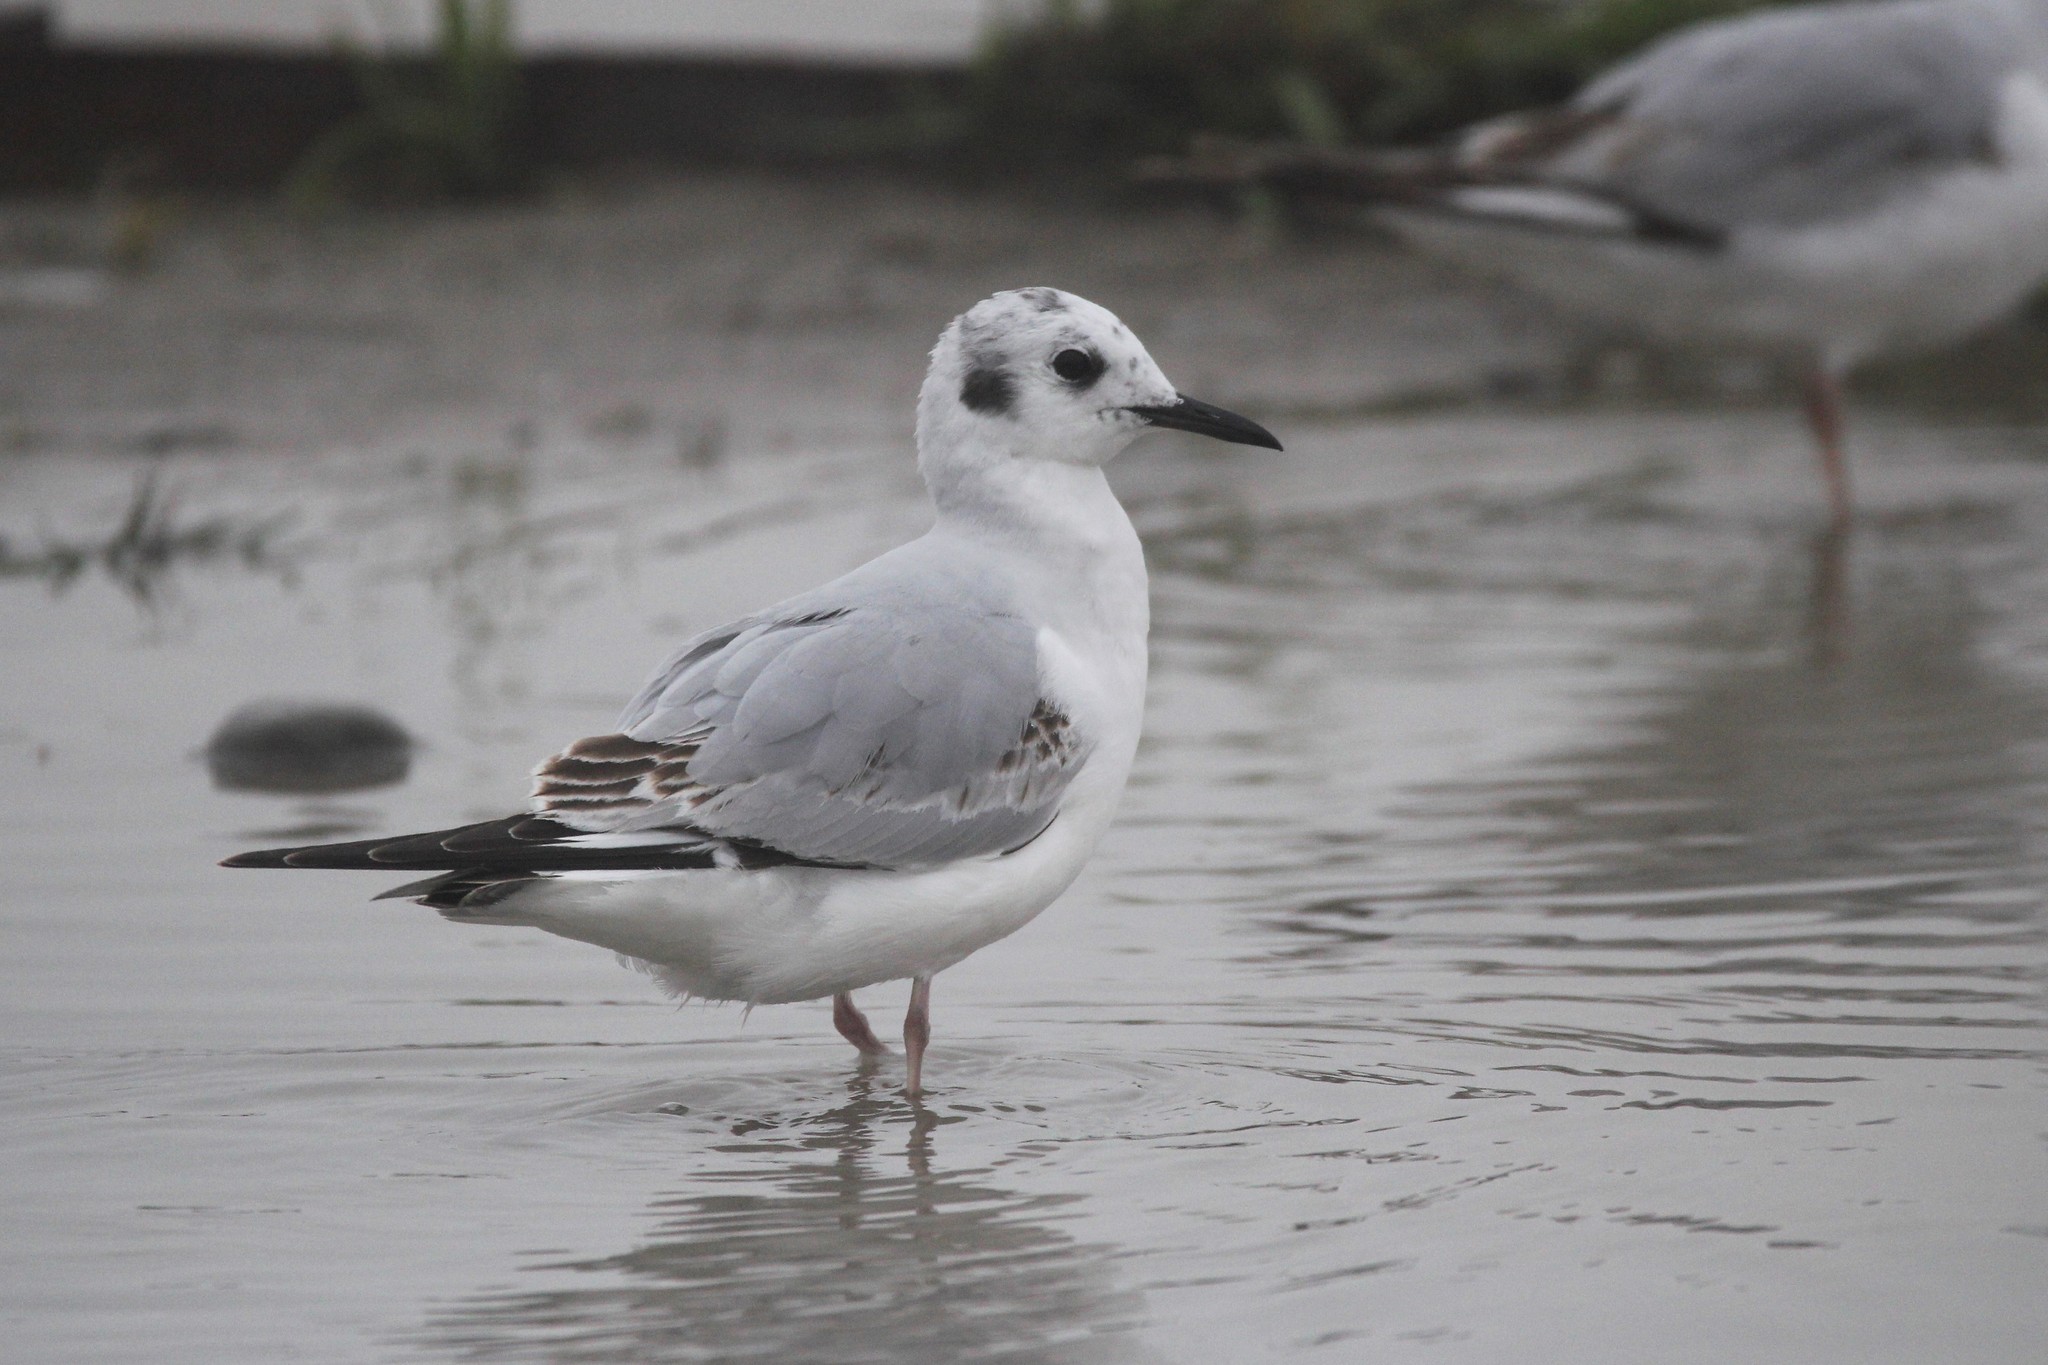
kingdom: Animalia
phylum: Chordata
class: Aves
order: Charadriiformes
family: Laridae
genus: Chroicocephalus
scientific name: Chroicocephalus philadelphia
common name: Bonaparte's gull
